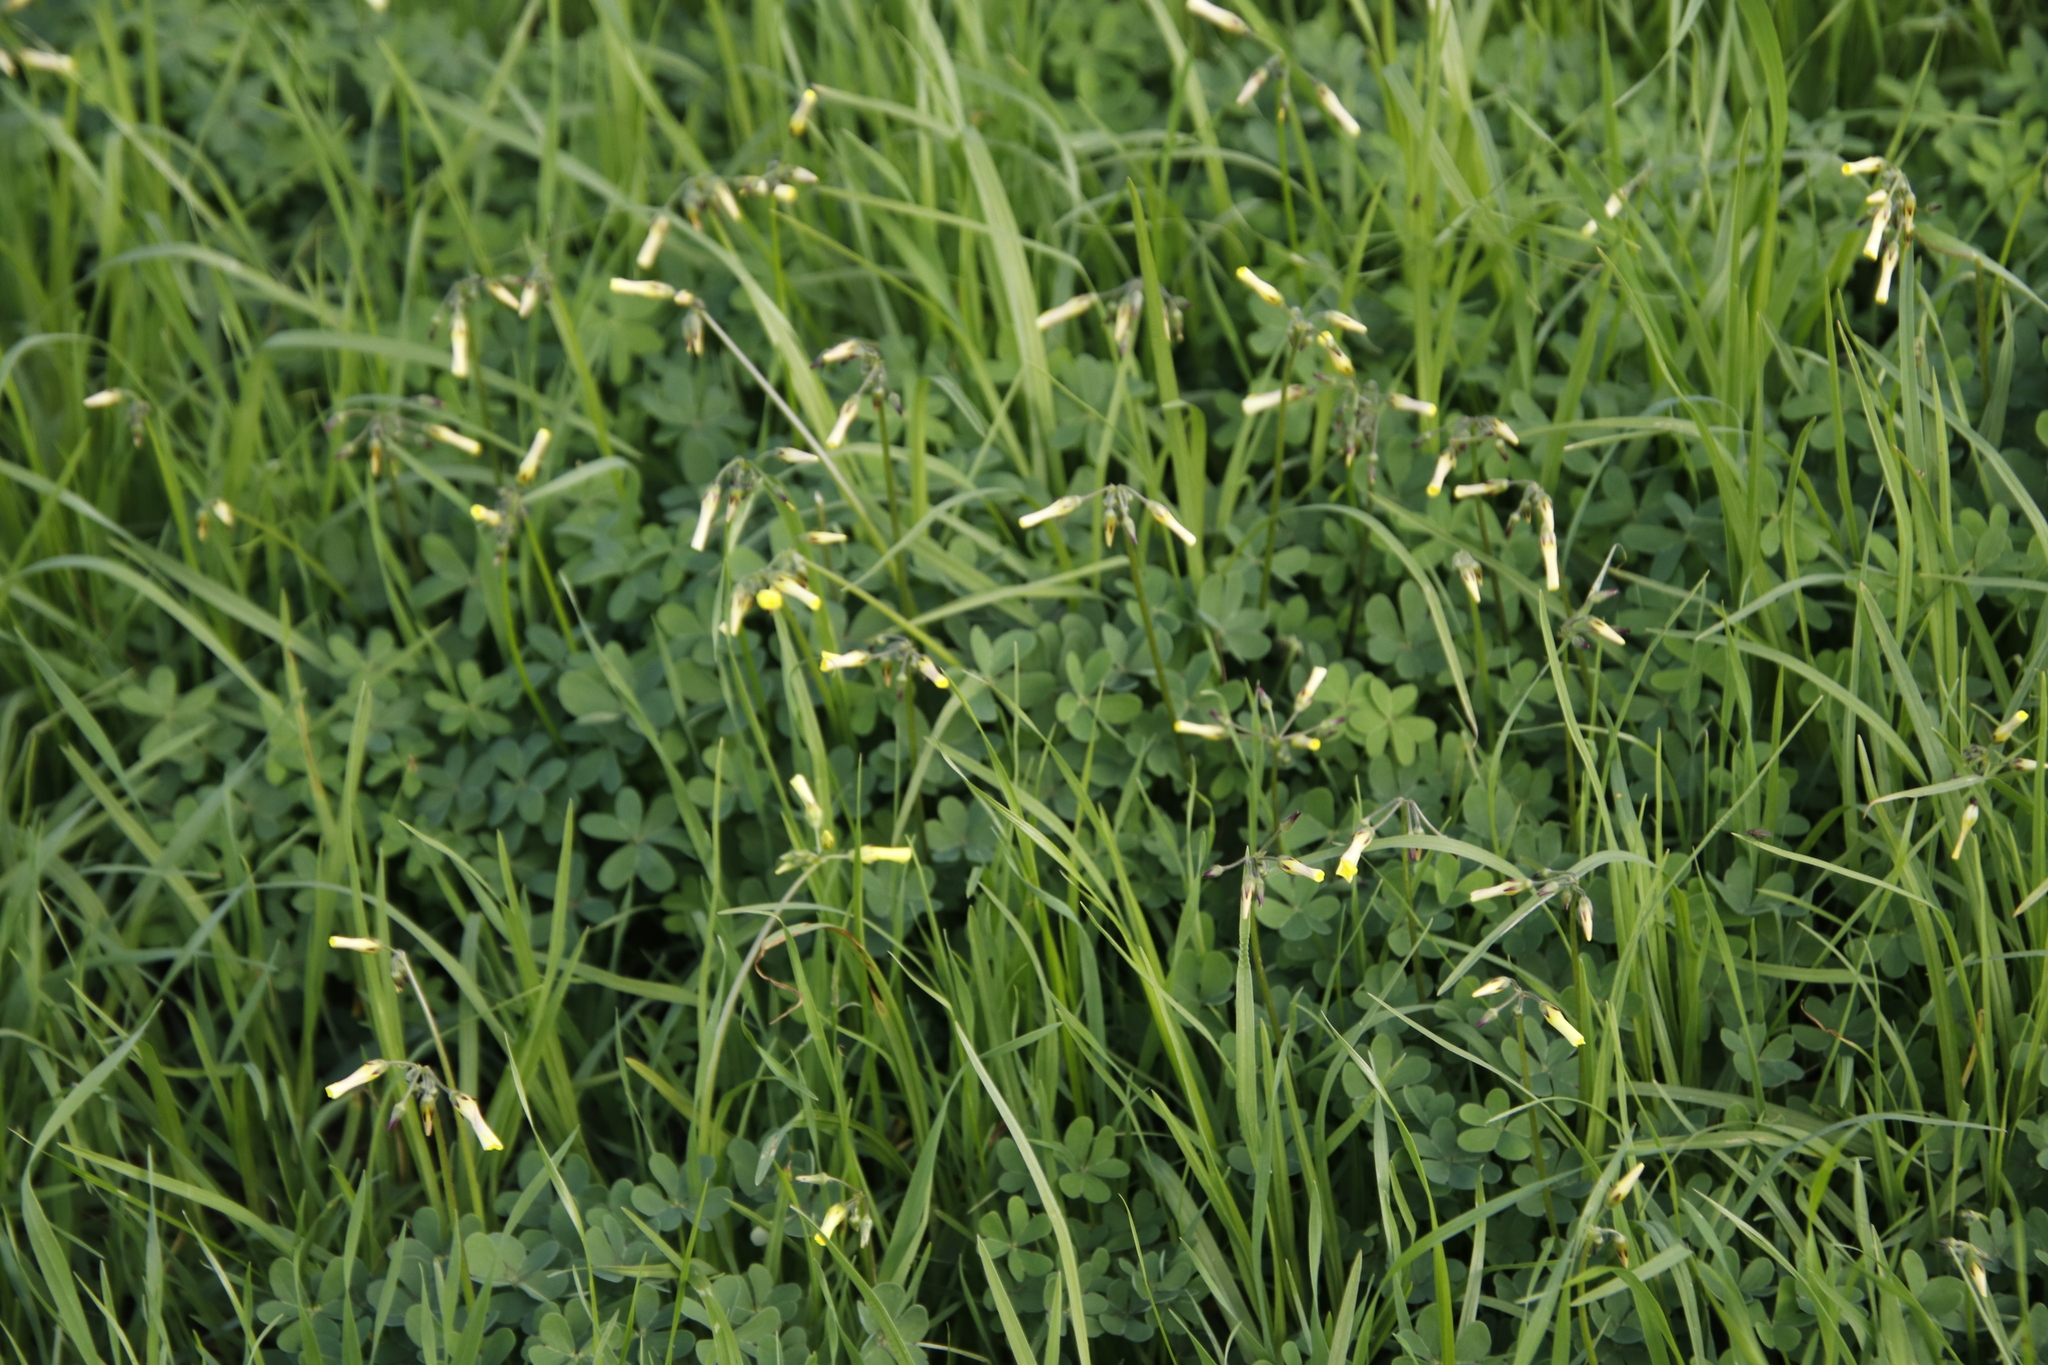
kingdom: Plantae
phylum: Tracheophyta
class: Magnoliopsida
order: Oxalidales
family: Oxalidaceae
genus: Oxalis
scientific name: Oxalis pes-caprae
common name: Bermuda-buttercup
